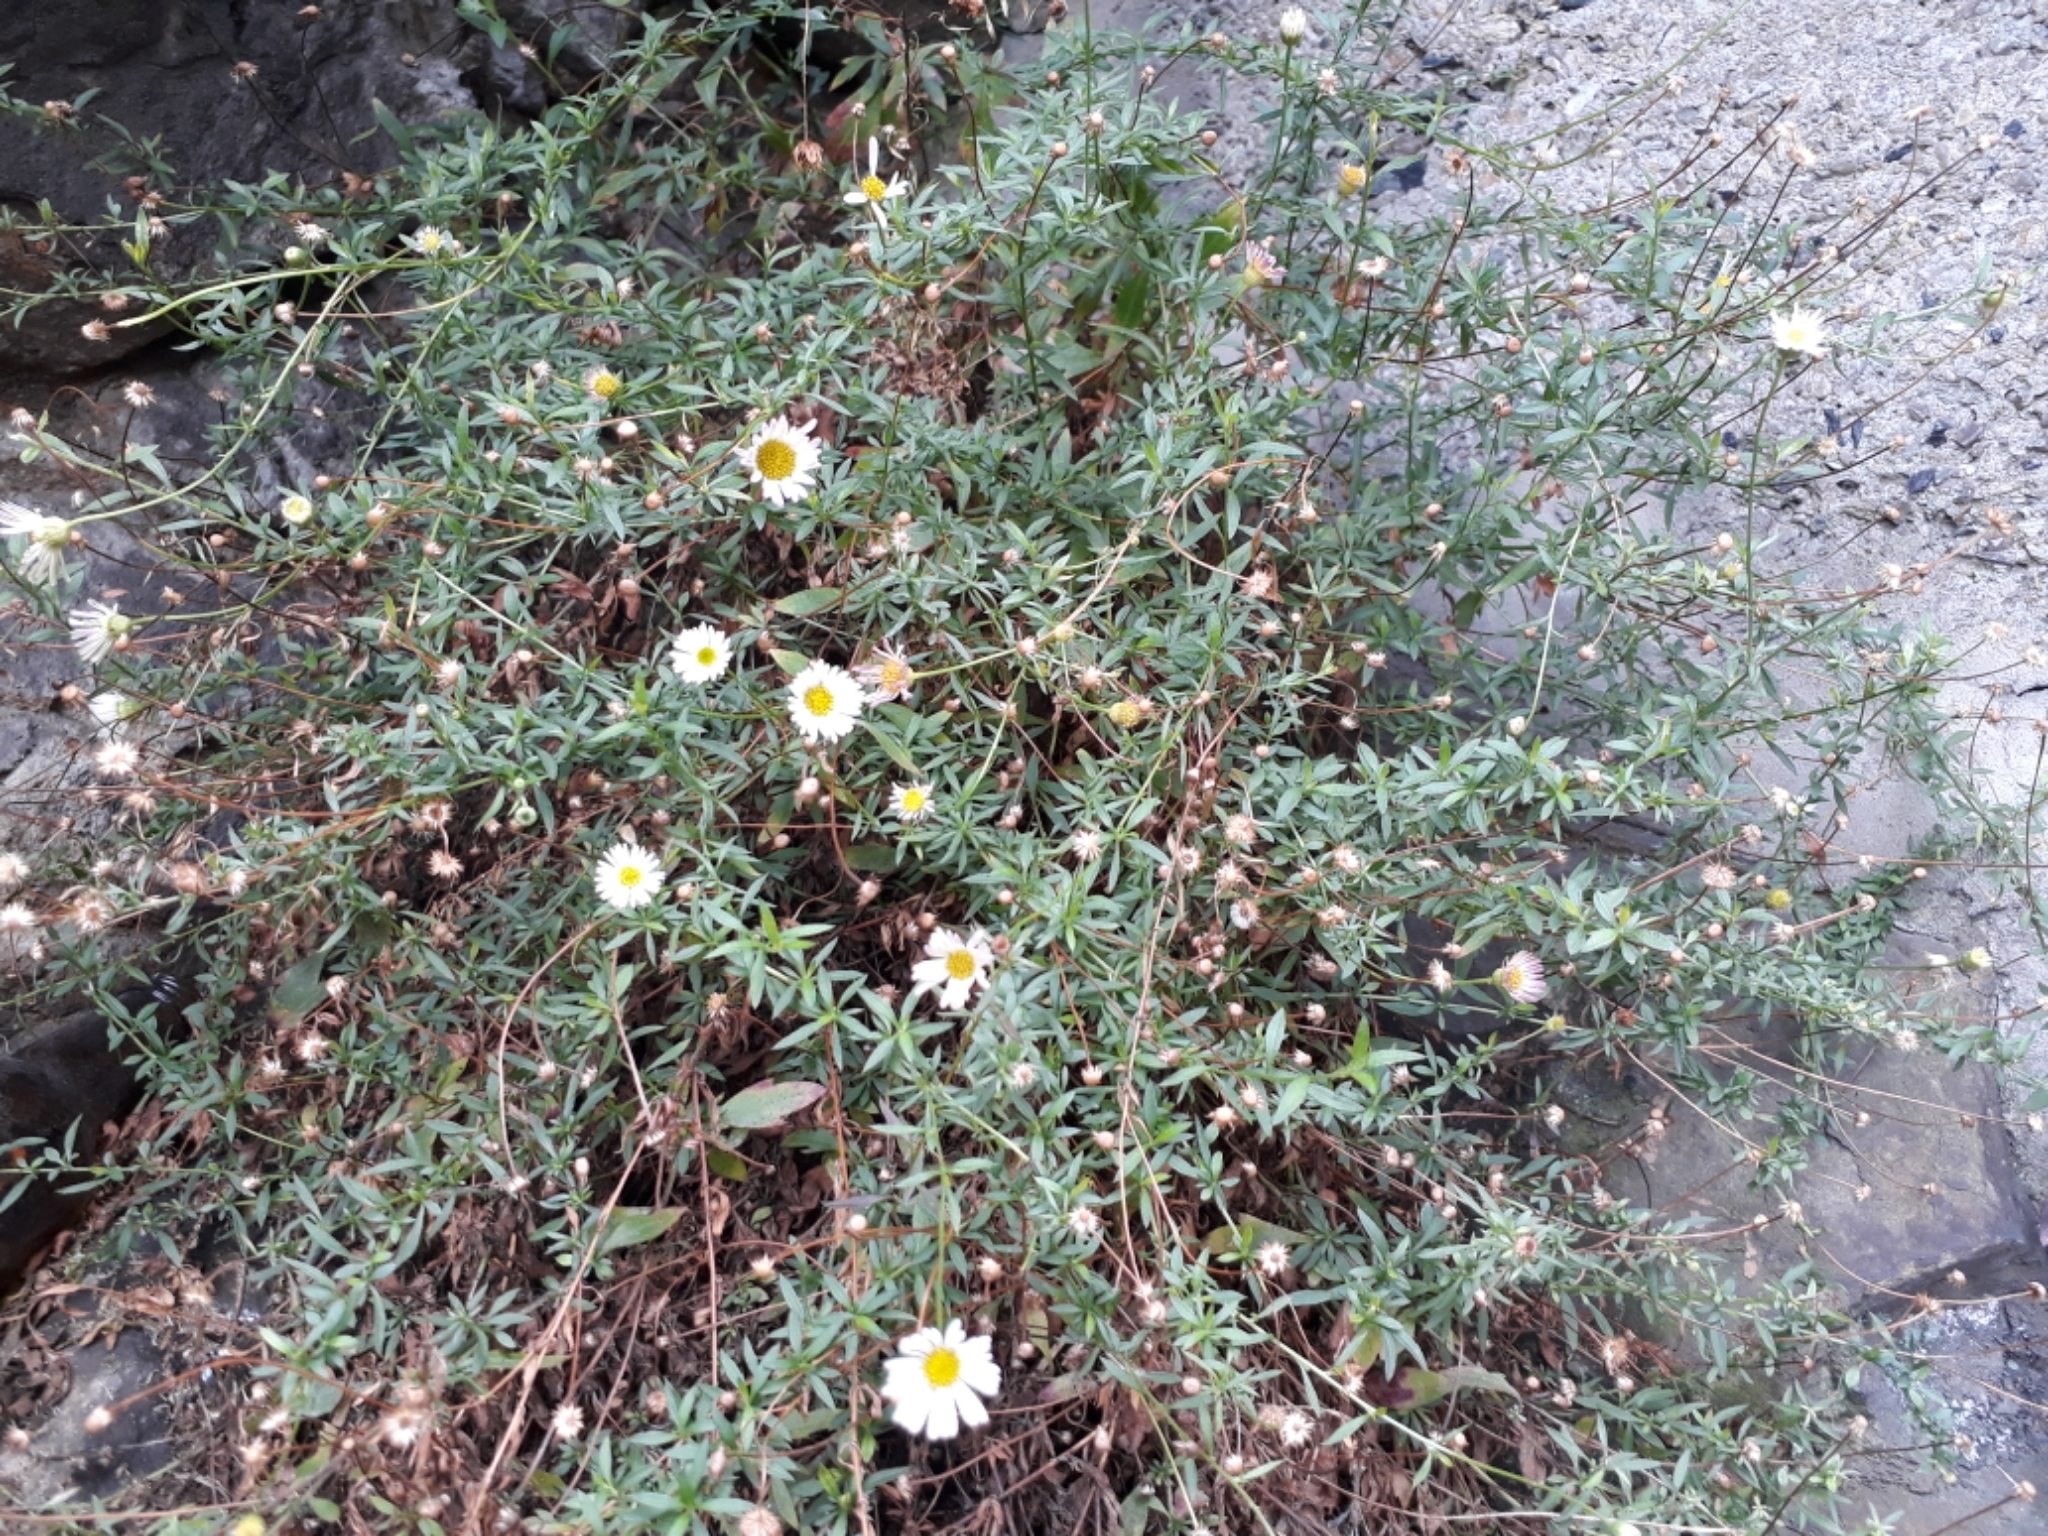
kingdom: Plantae
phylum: Tracheophyta
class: Magnoliopsida
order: Asterales
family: Asteraceae
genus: Erigeron
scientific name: Erigeron karvinskianus
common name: Mexican fleabane
